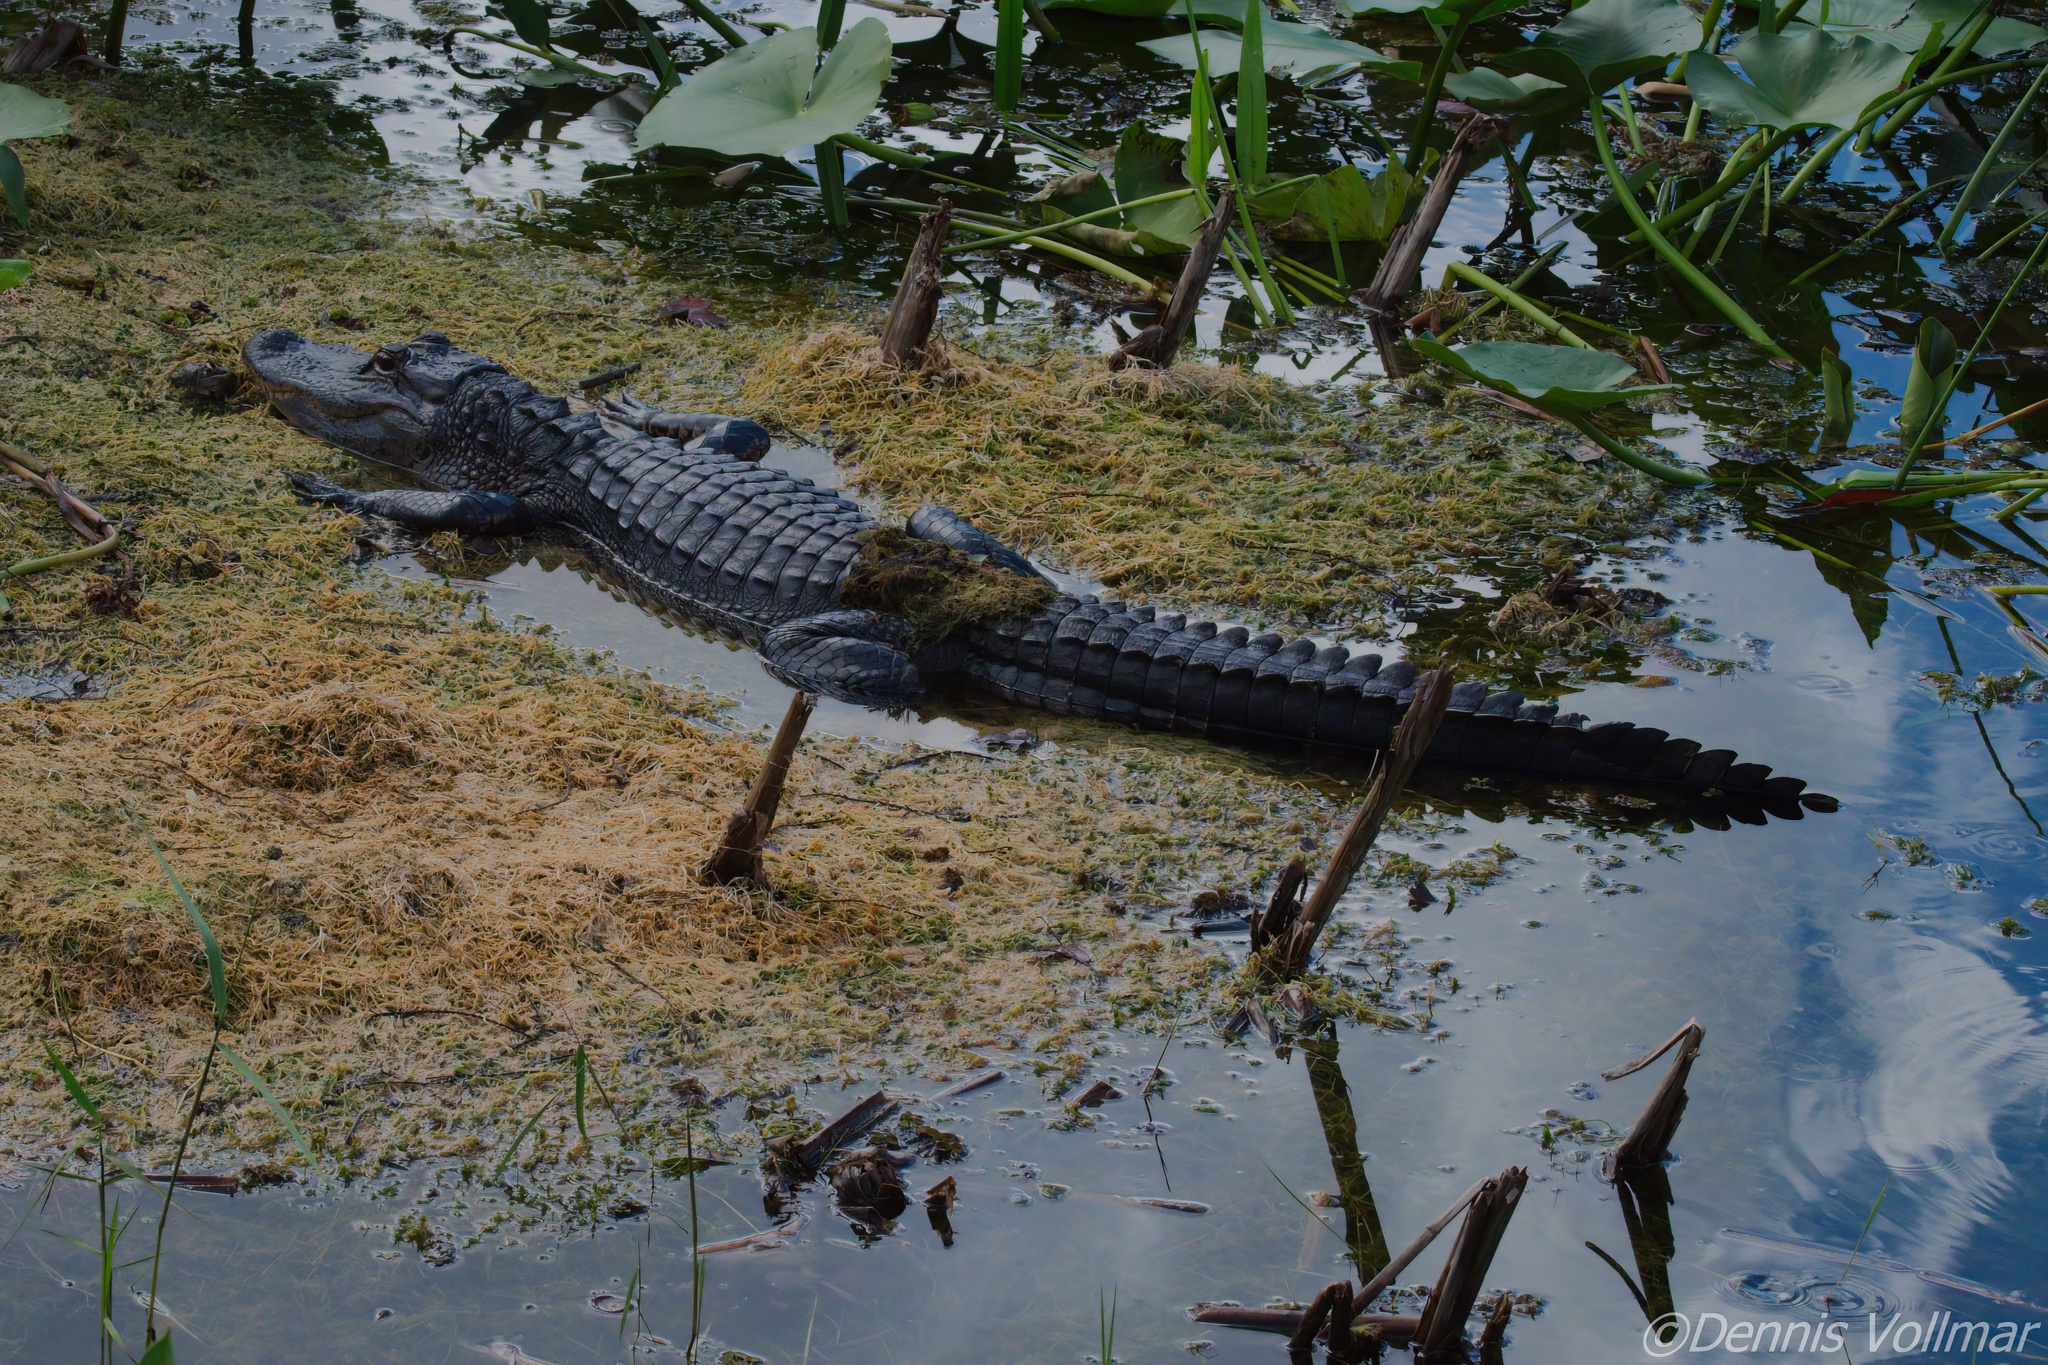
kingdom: Animalia
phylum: Chordata
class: Crocodylia
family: Alligatoridae
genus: Alligator
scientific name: Alligator mississippiensis
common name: American alligator
